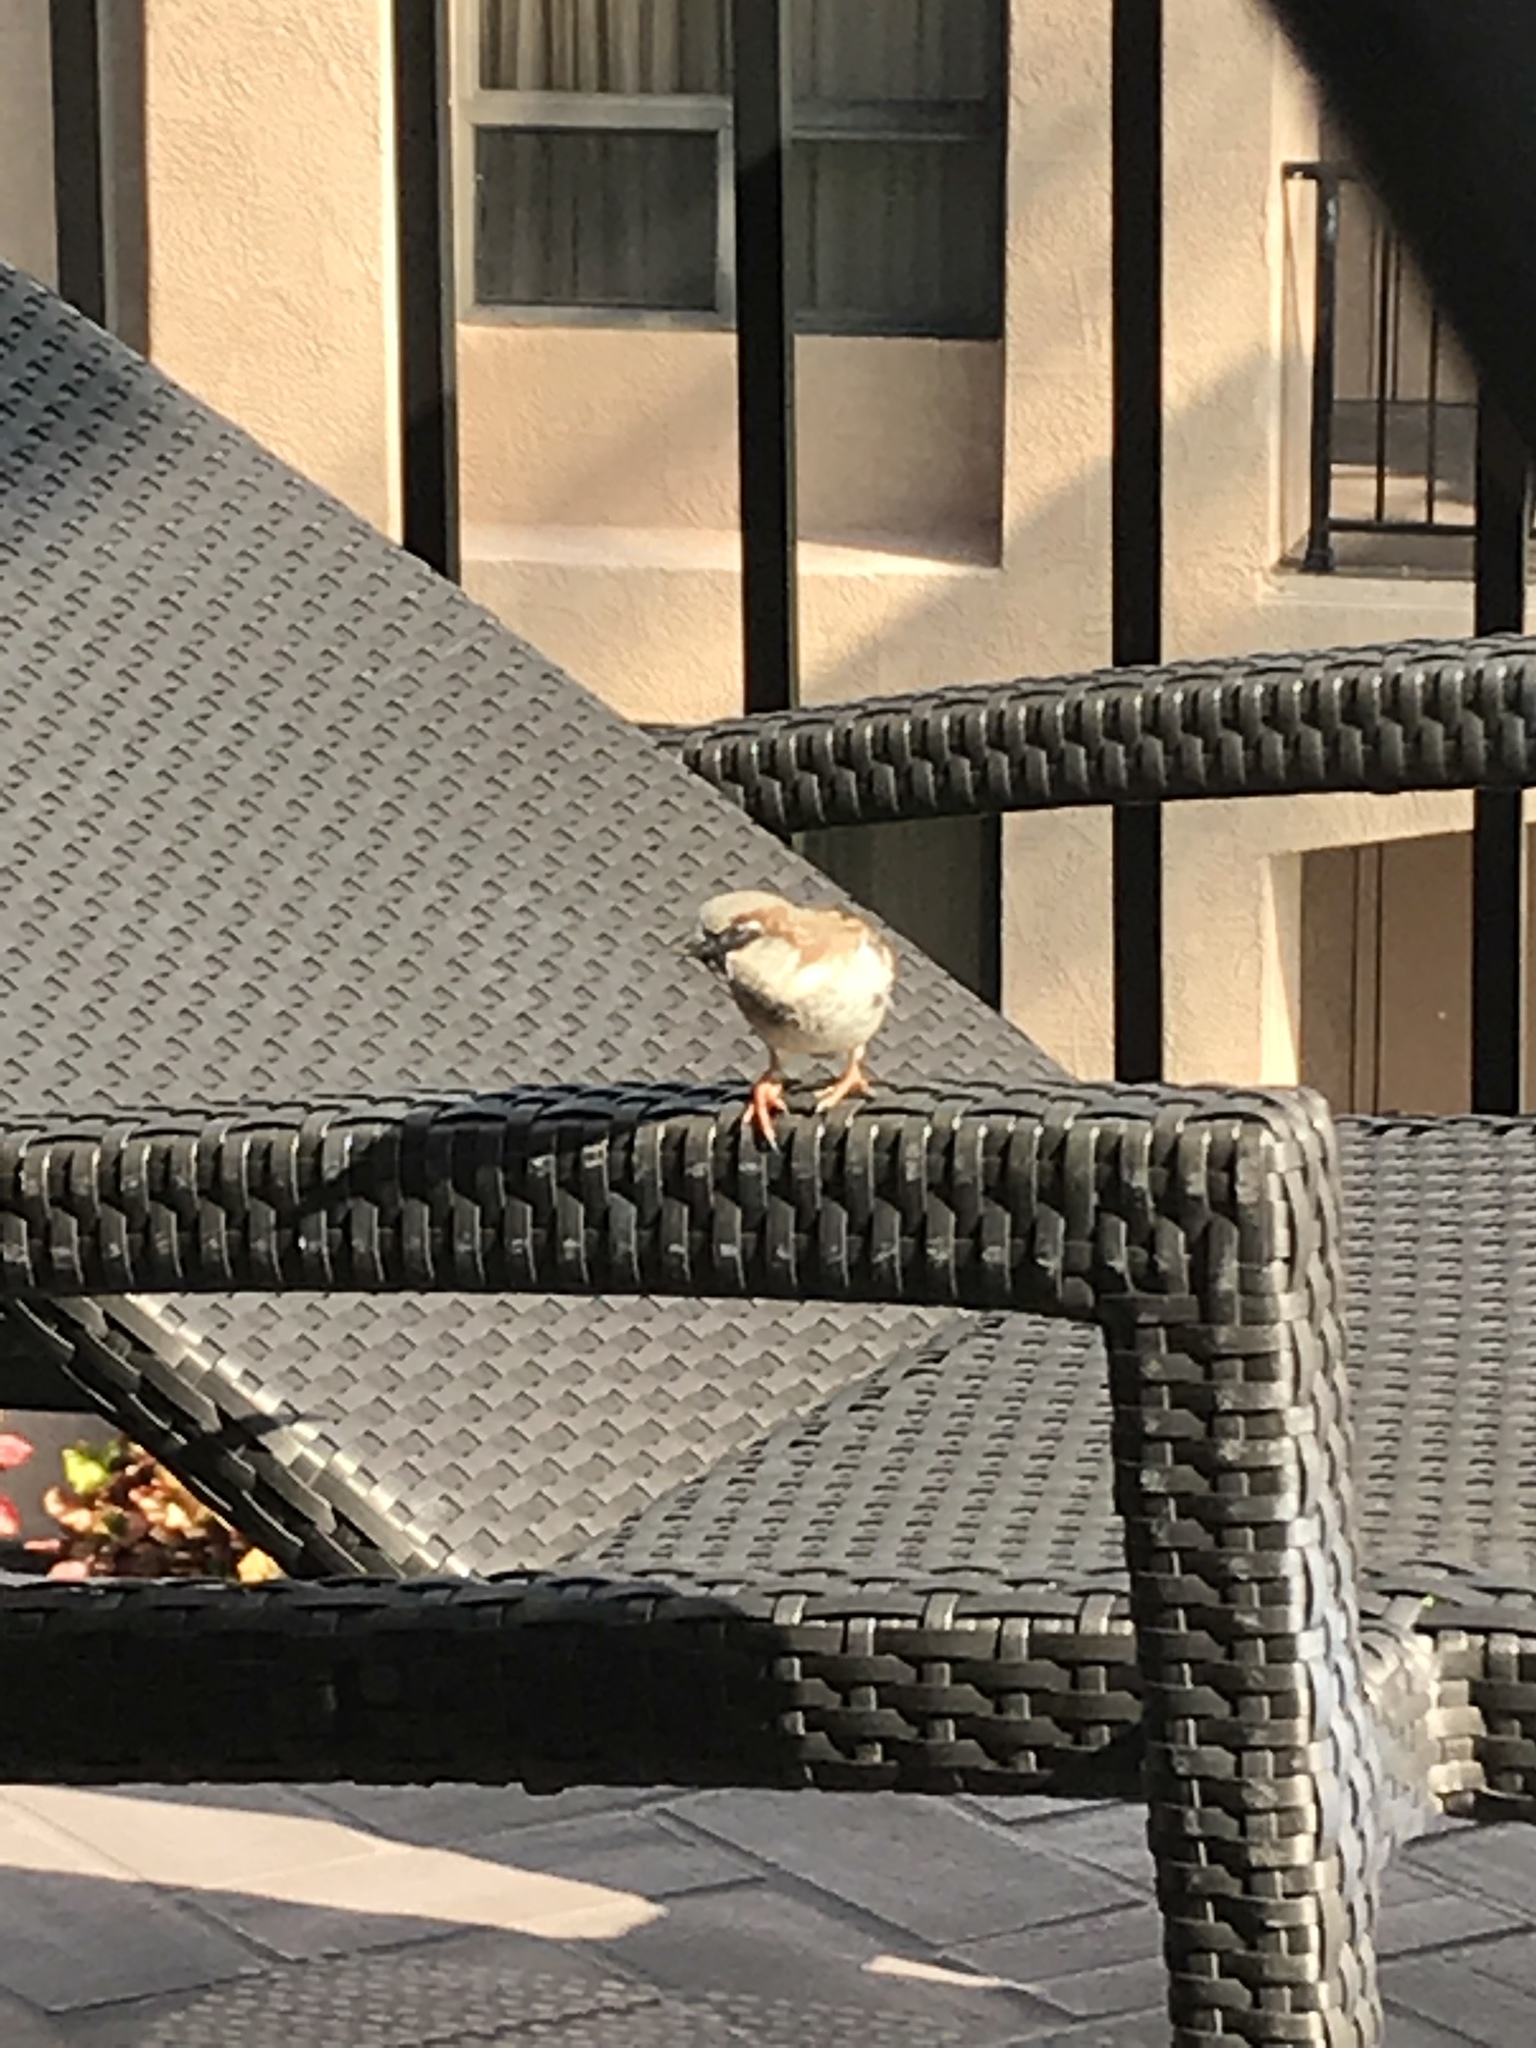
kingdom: Animalia
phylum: Chordata
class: Aves
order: Passeriformes
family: Passeridae
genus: Passer
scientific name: Passer domesticus
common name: House sparrow
